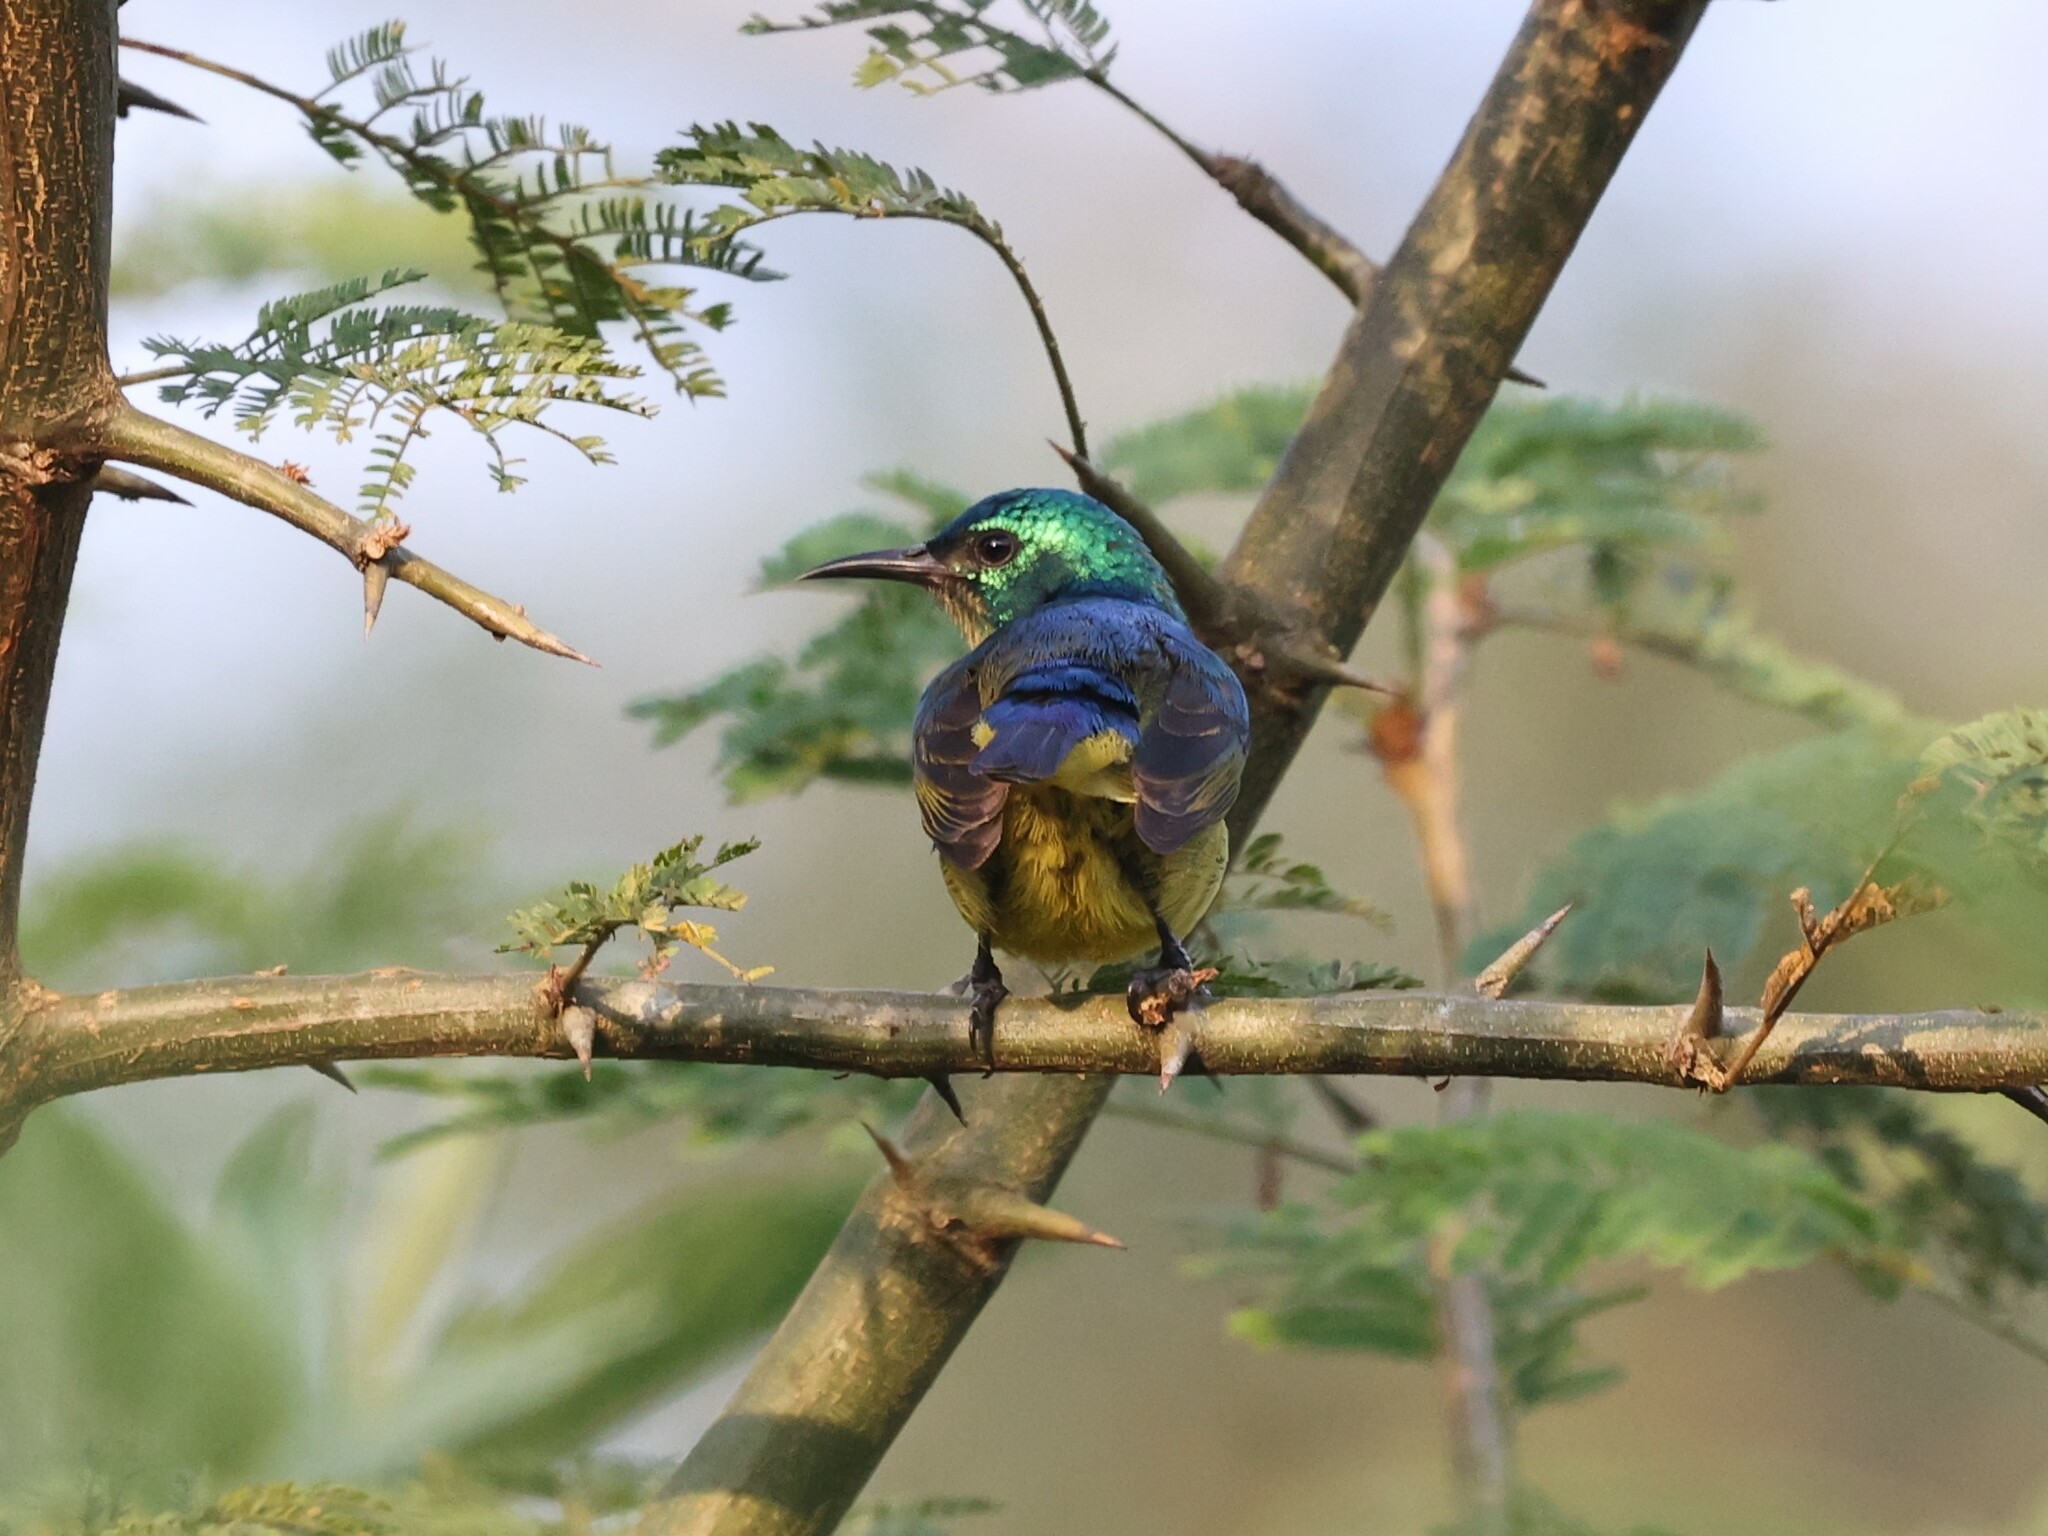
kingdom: Animalia
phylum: Chordata
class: Aves
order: Passeriformes
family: Nectariniidae
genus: Hedydipna
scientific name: Hedydipna collaris
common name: Collared sunbird
